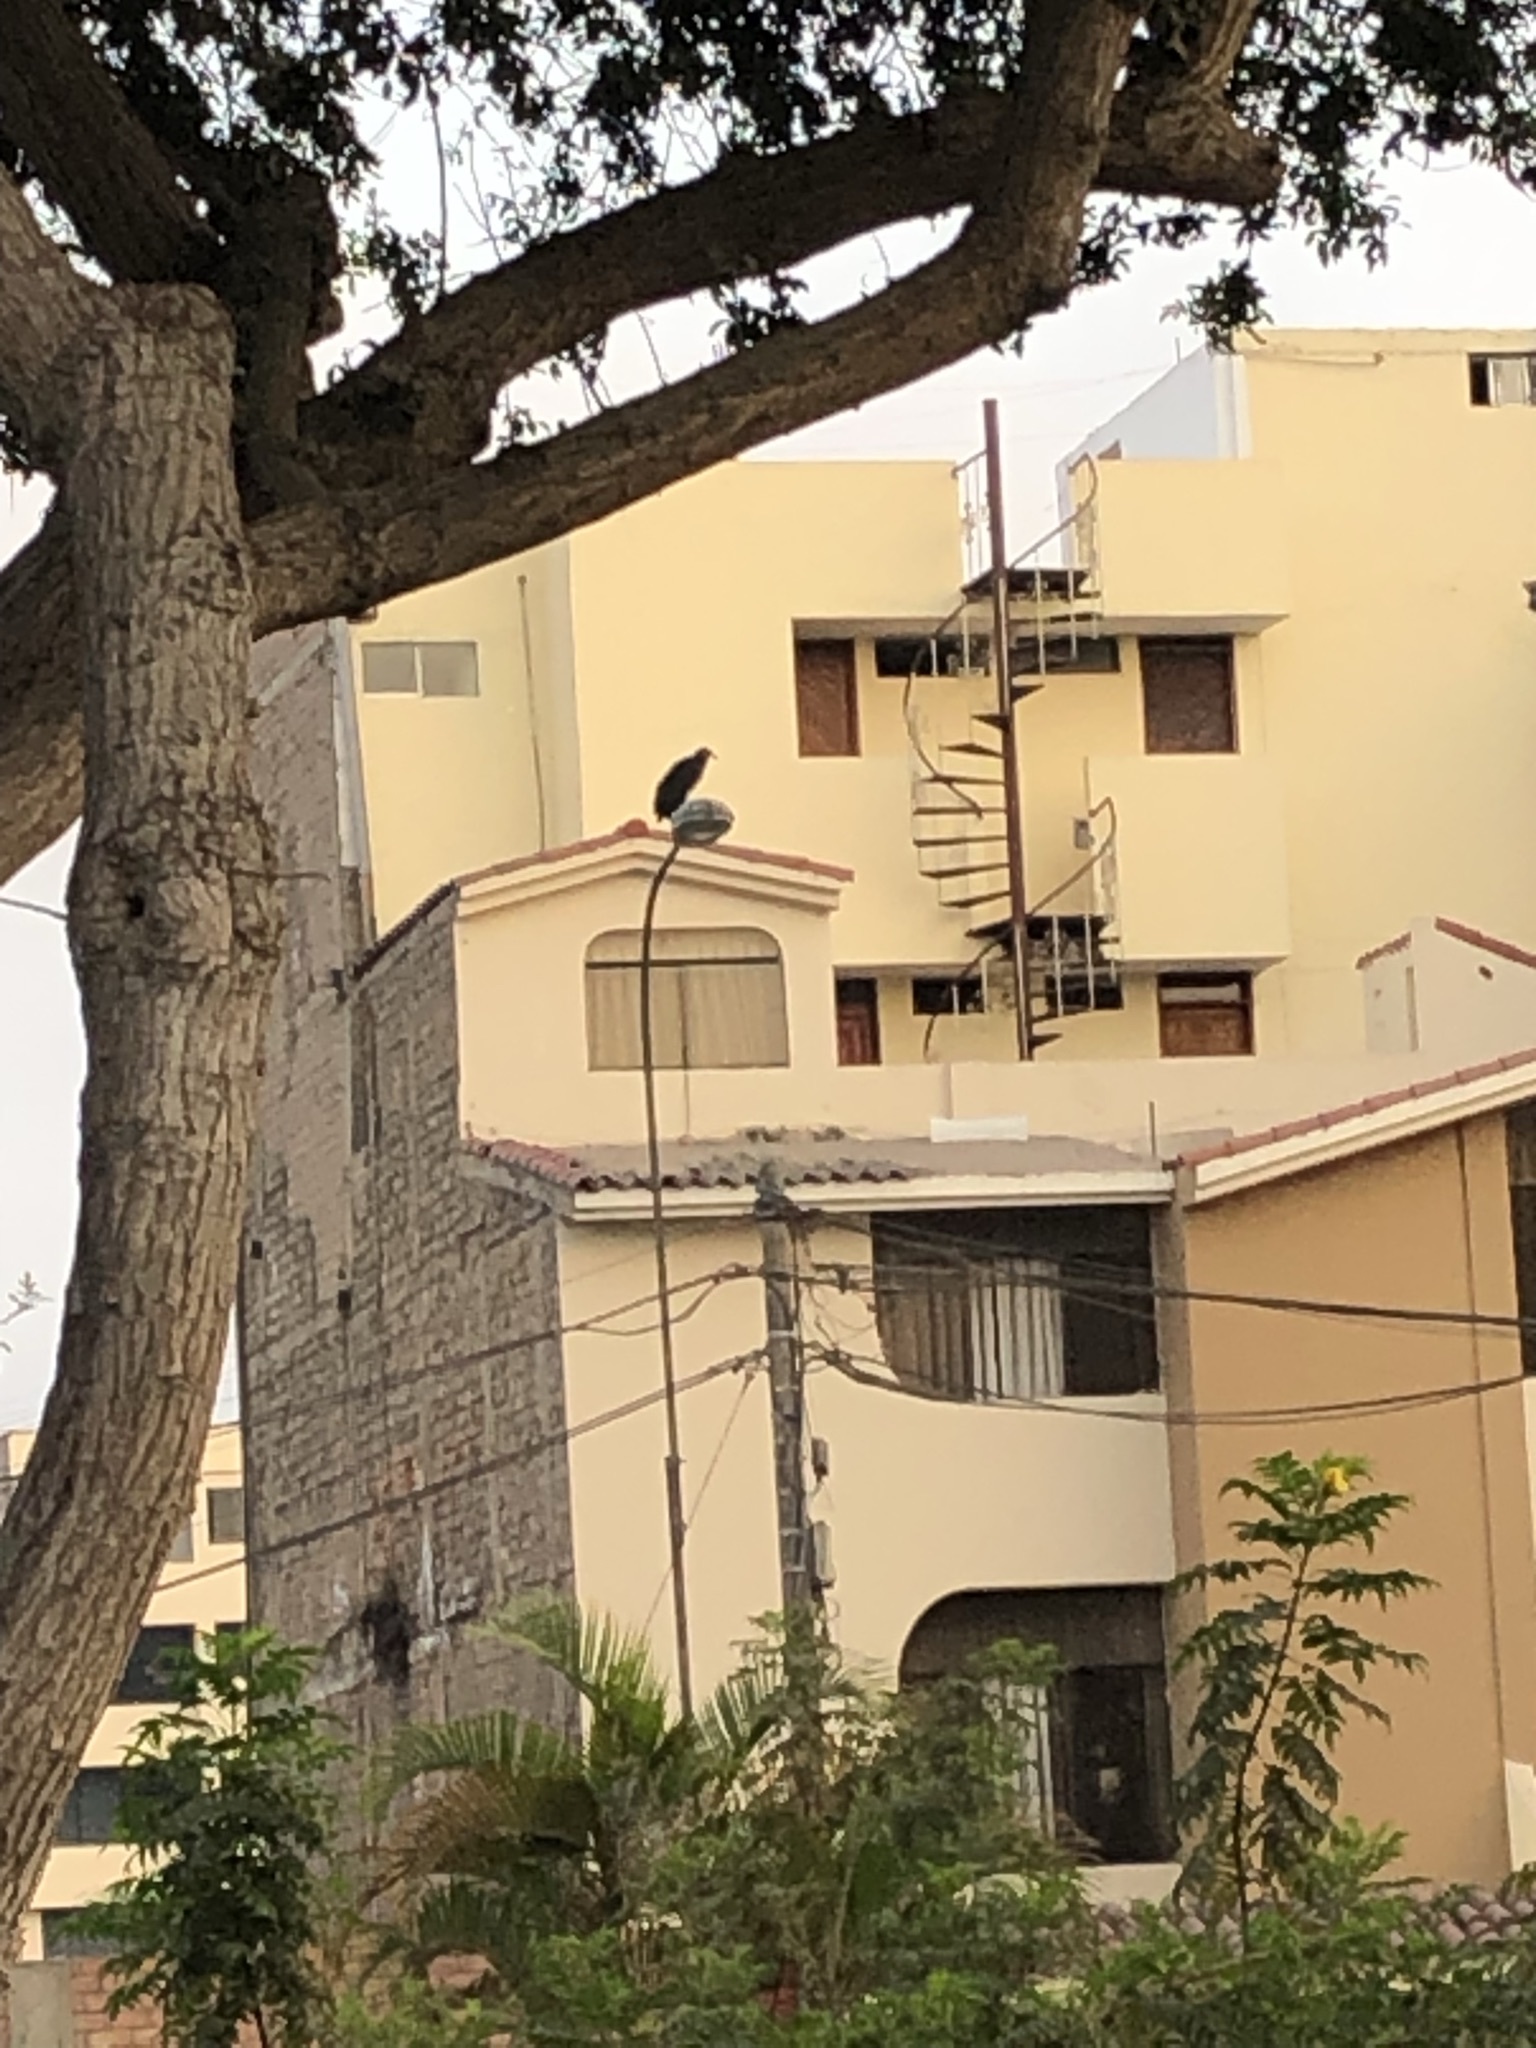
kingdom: Animalia
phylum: Chordata
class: Aves
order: Accipitriformes
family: Cathartidae
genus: Coragyps
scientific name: Coragyps atratus
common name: Black vulture
